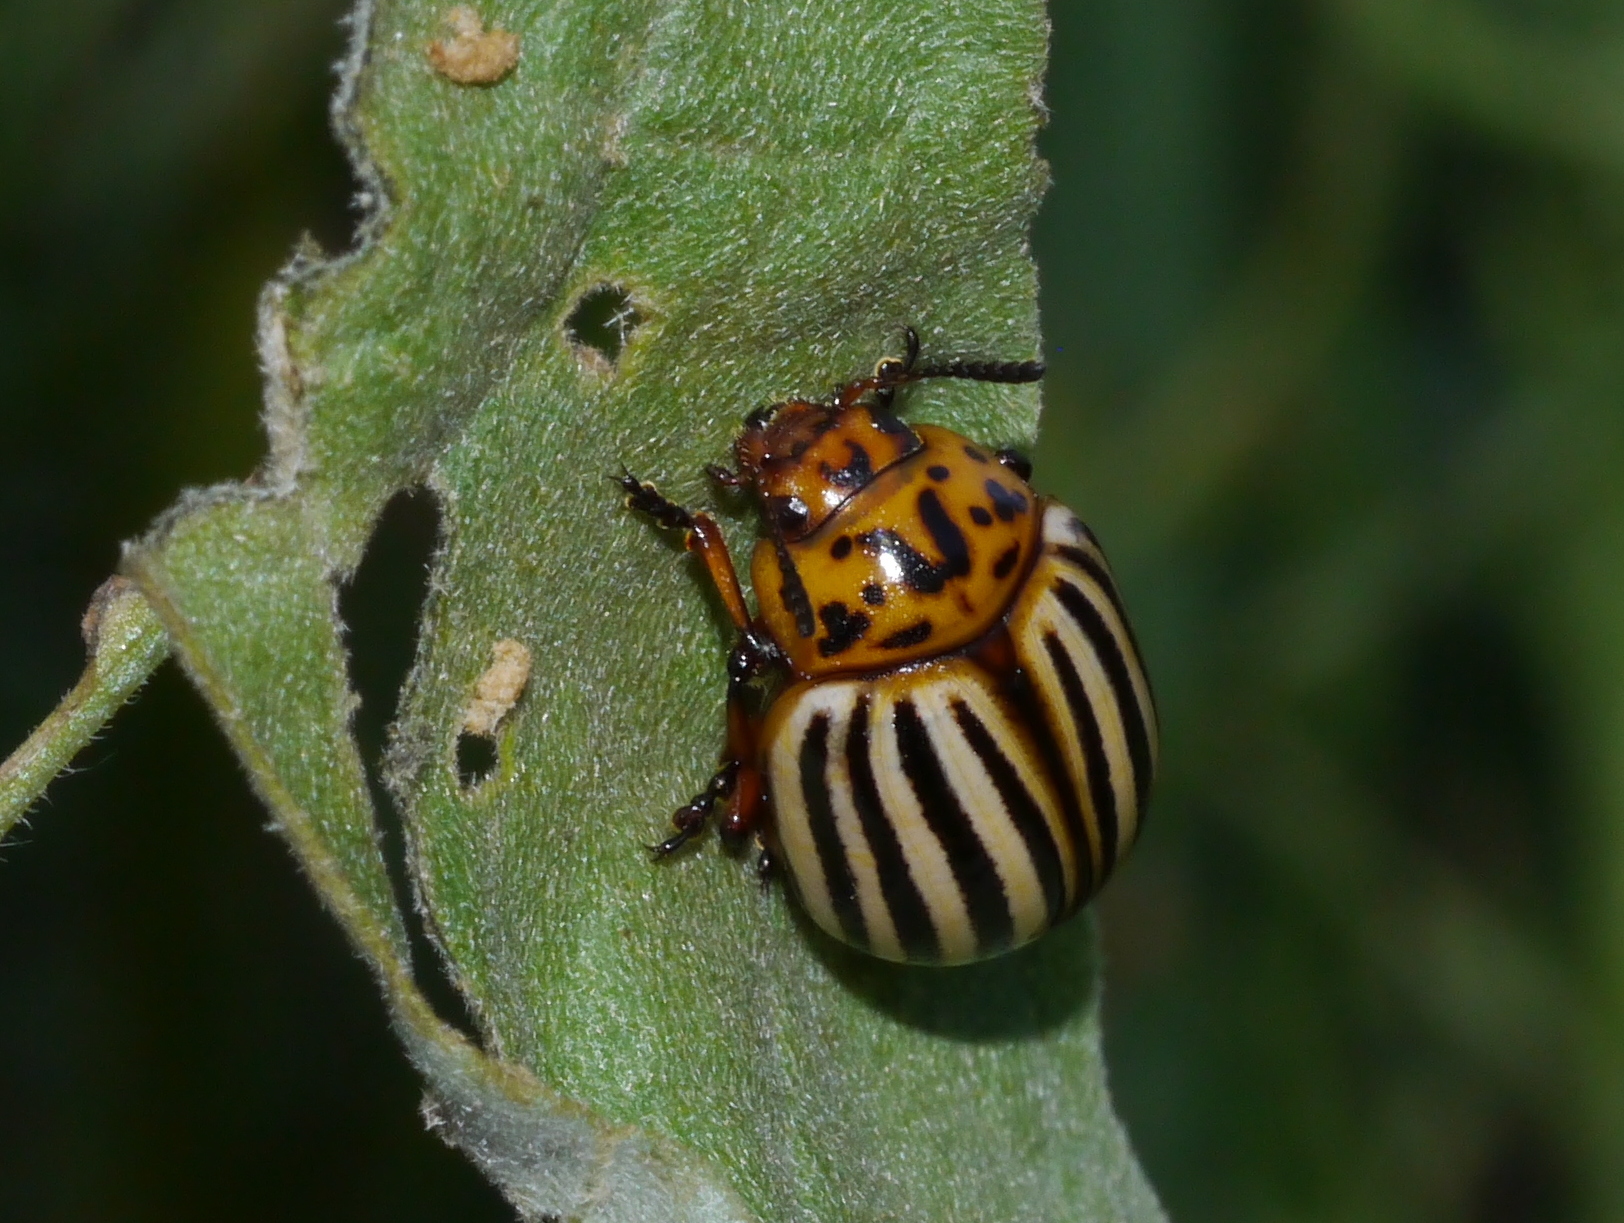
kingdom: Animalia
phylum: Arthropoda
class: Insecta
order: Coleoptera
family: Chrysomelidae
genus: Leptinotarsa
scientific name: Leptinotarsa decemlineata
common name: Colorado potato beetle
